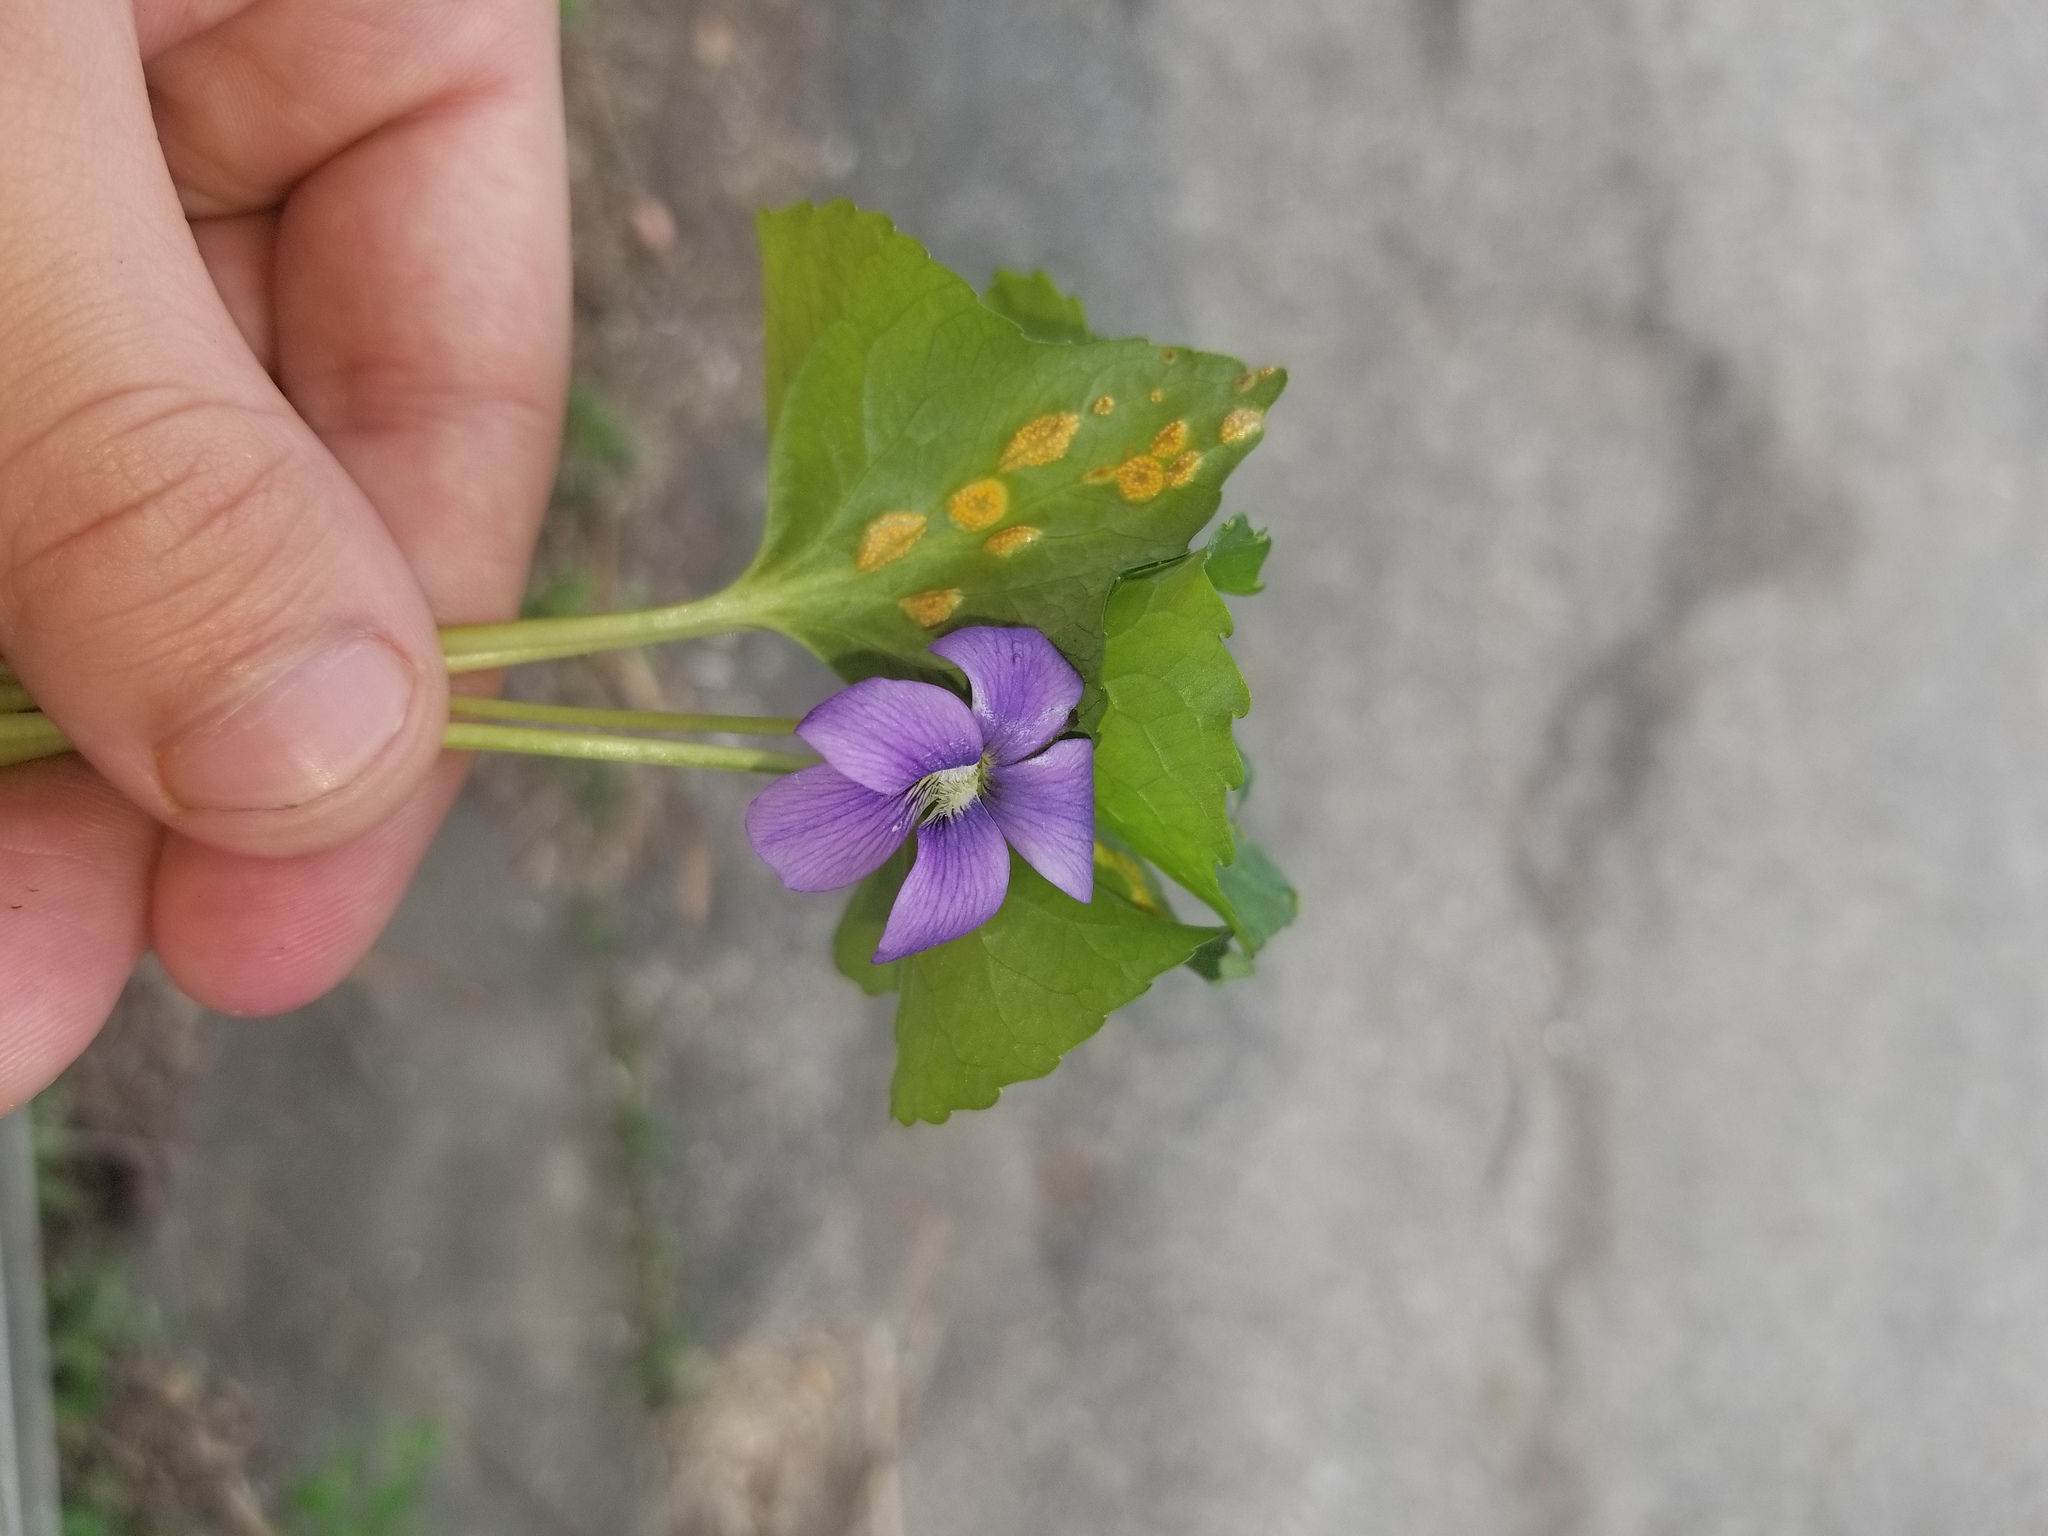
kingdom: Fungi
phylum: Basidiomycota
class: Pucciniomycetes
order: Pucciniales
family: Pucciniaceae
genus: Puccinia
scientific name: Puccinia violae
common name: Violet rust
